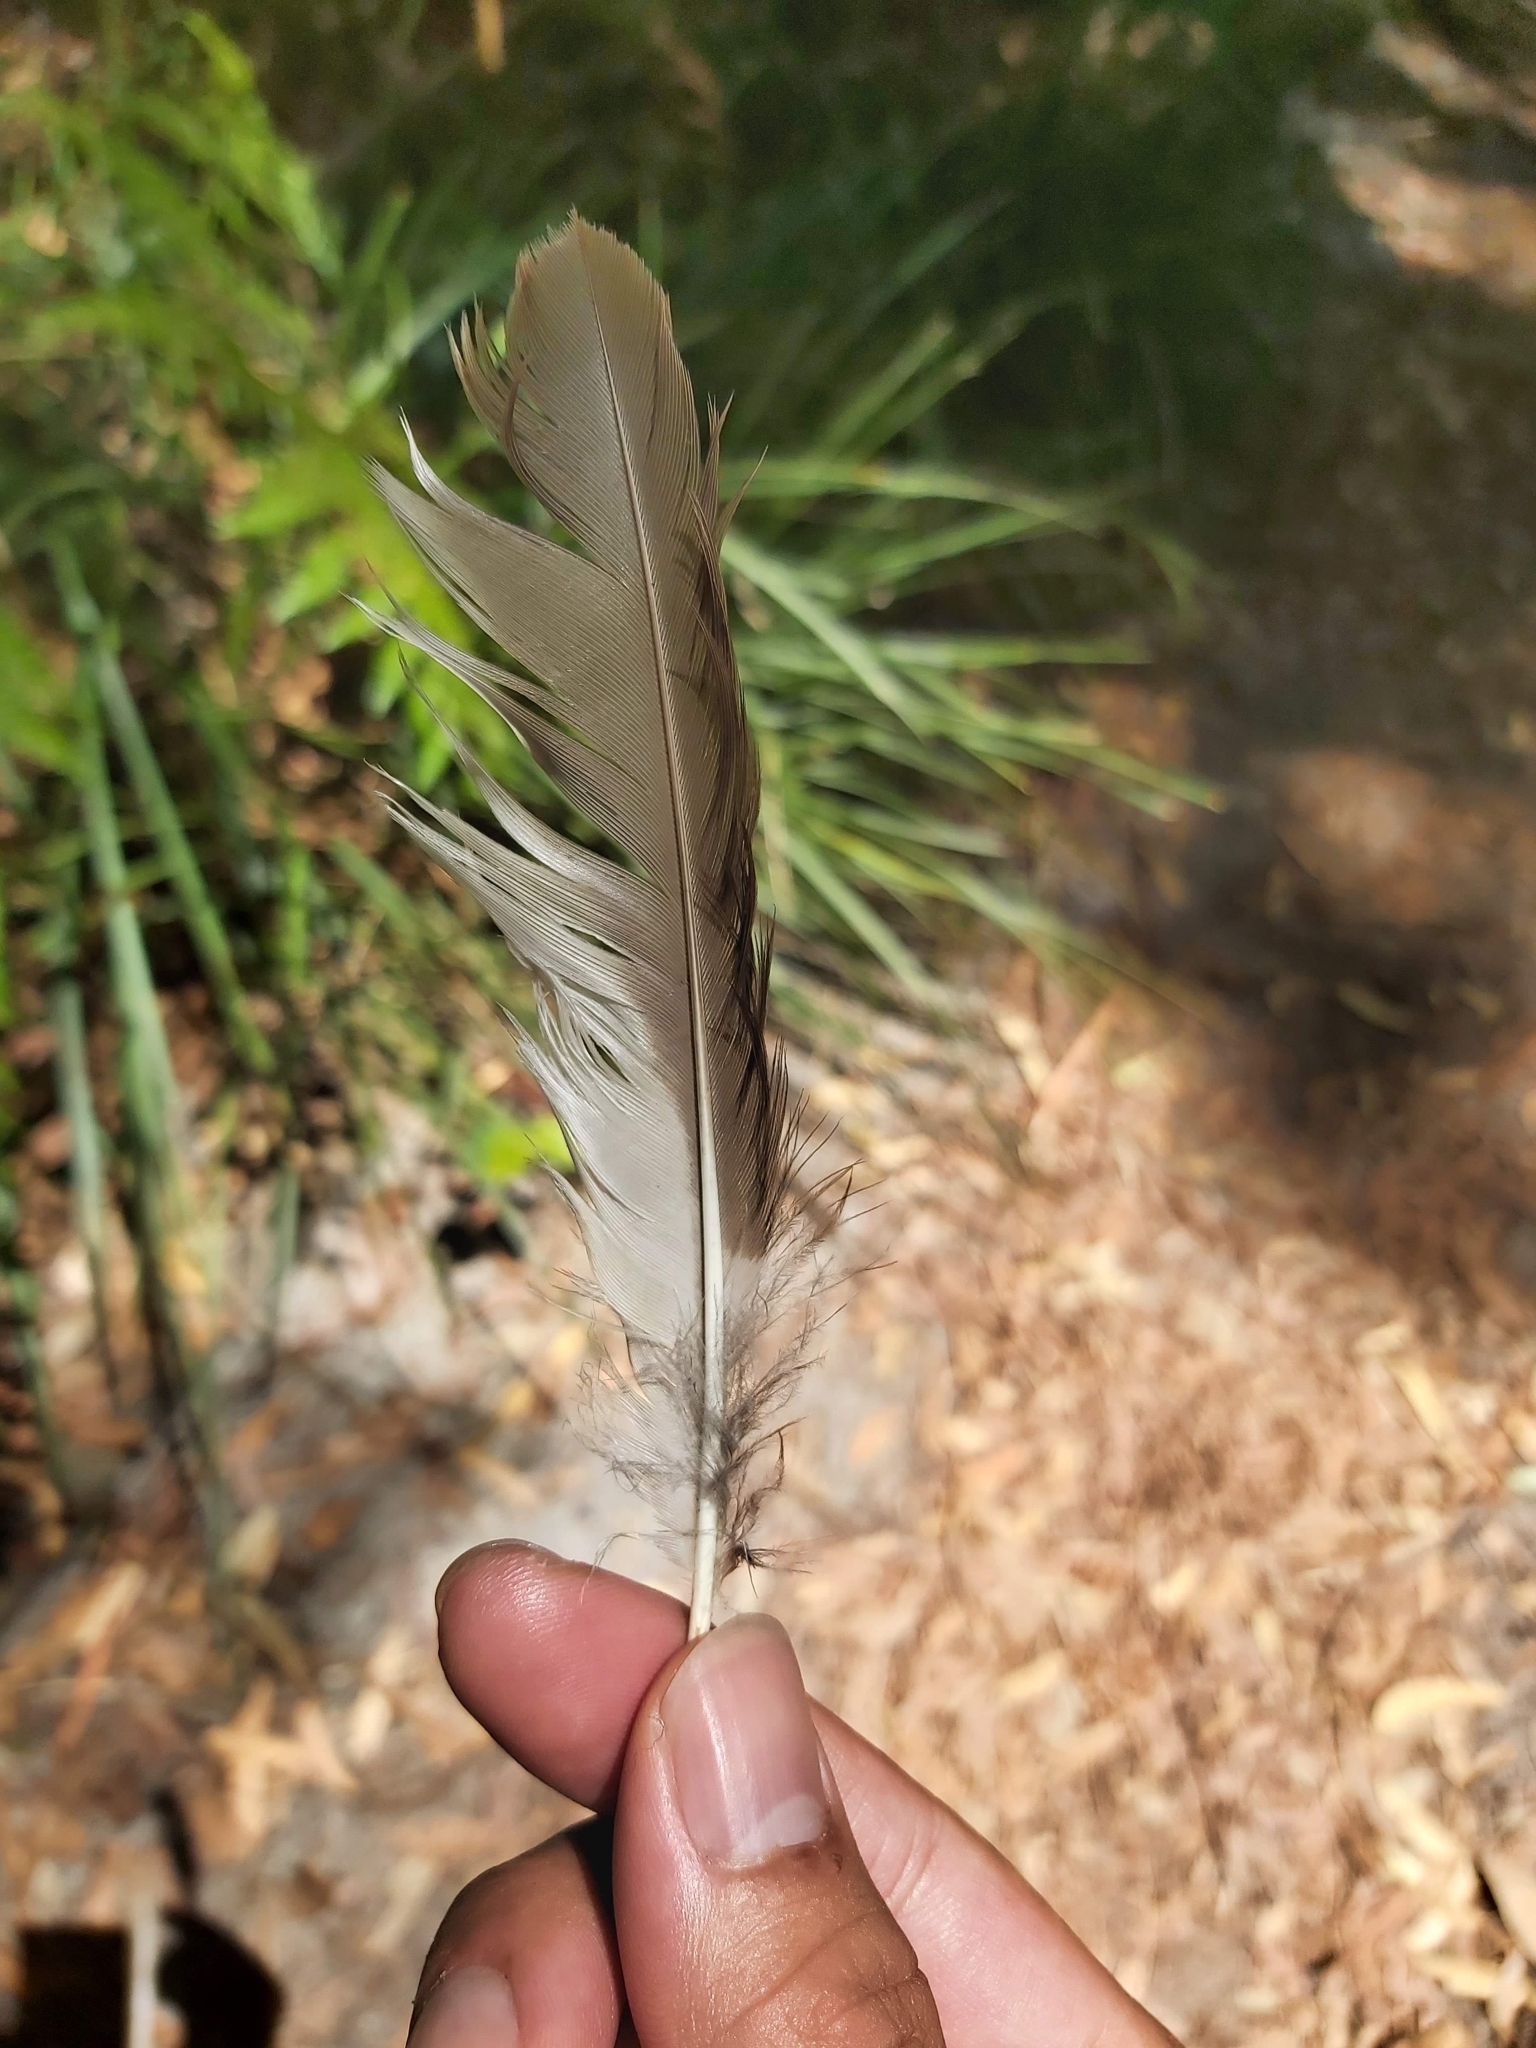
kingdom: Animalia
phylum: Chordata
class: Aves
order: Coraciiformes
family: Alcedinidae
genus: Dacelo
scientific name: Dacelo novaeguineae
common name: Laughing kookaburra
